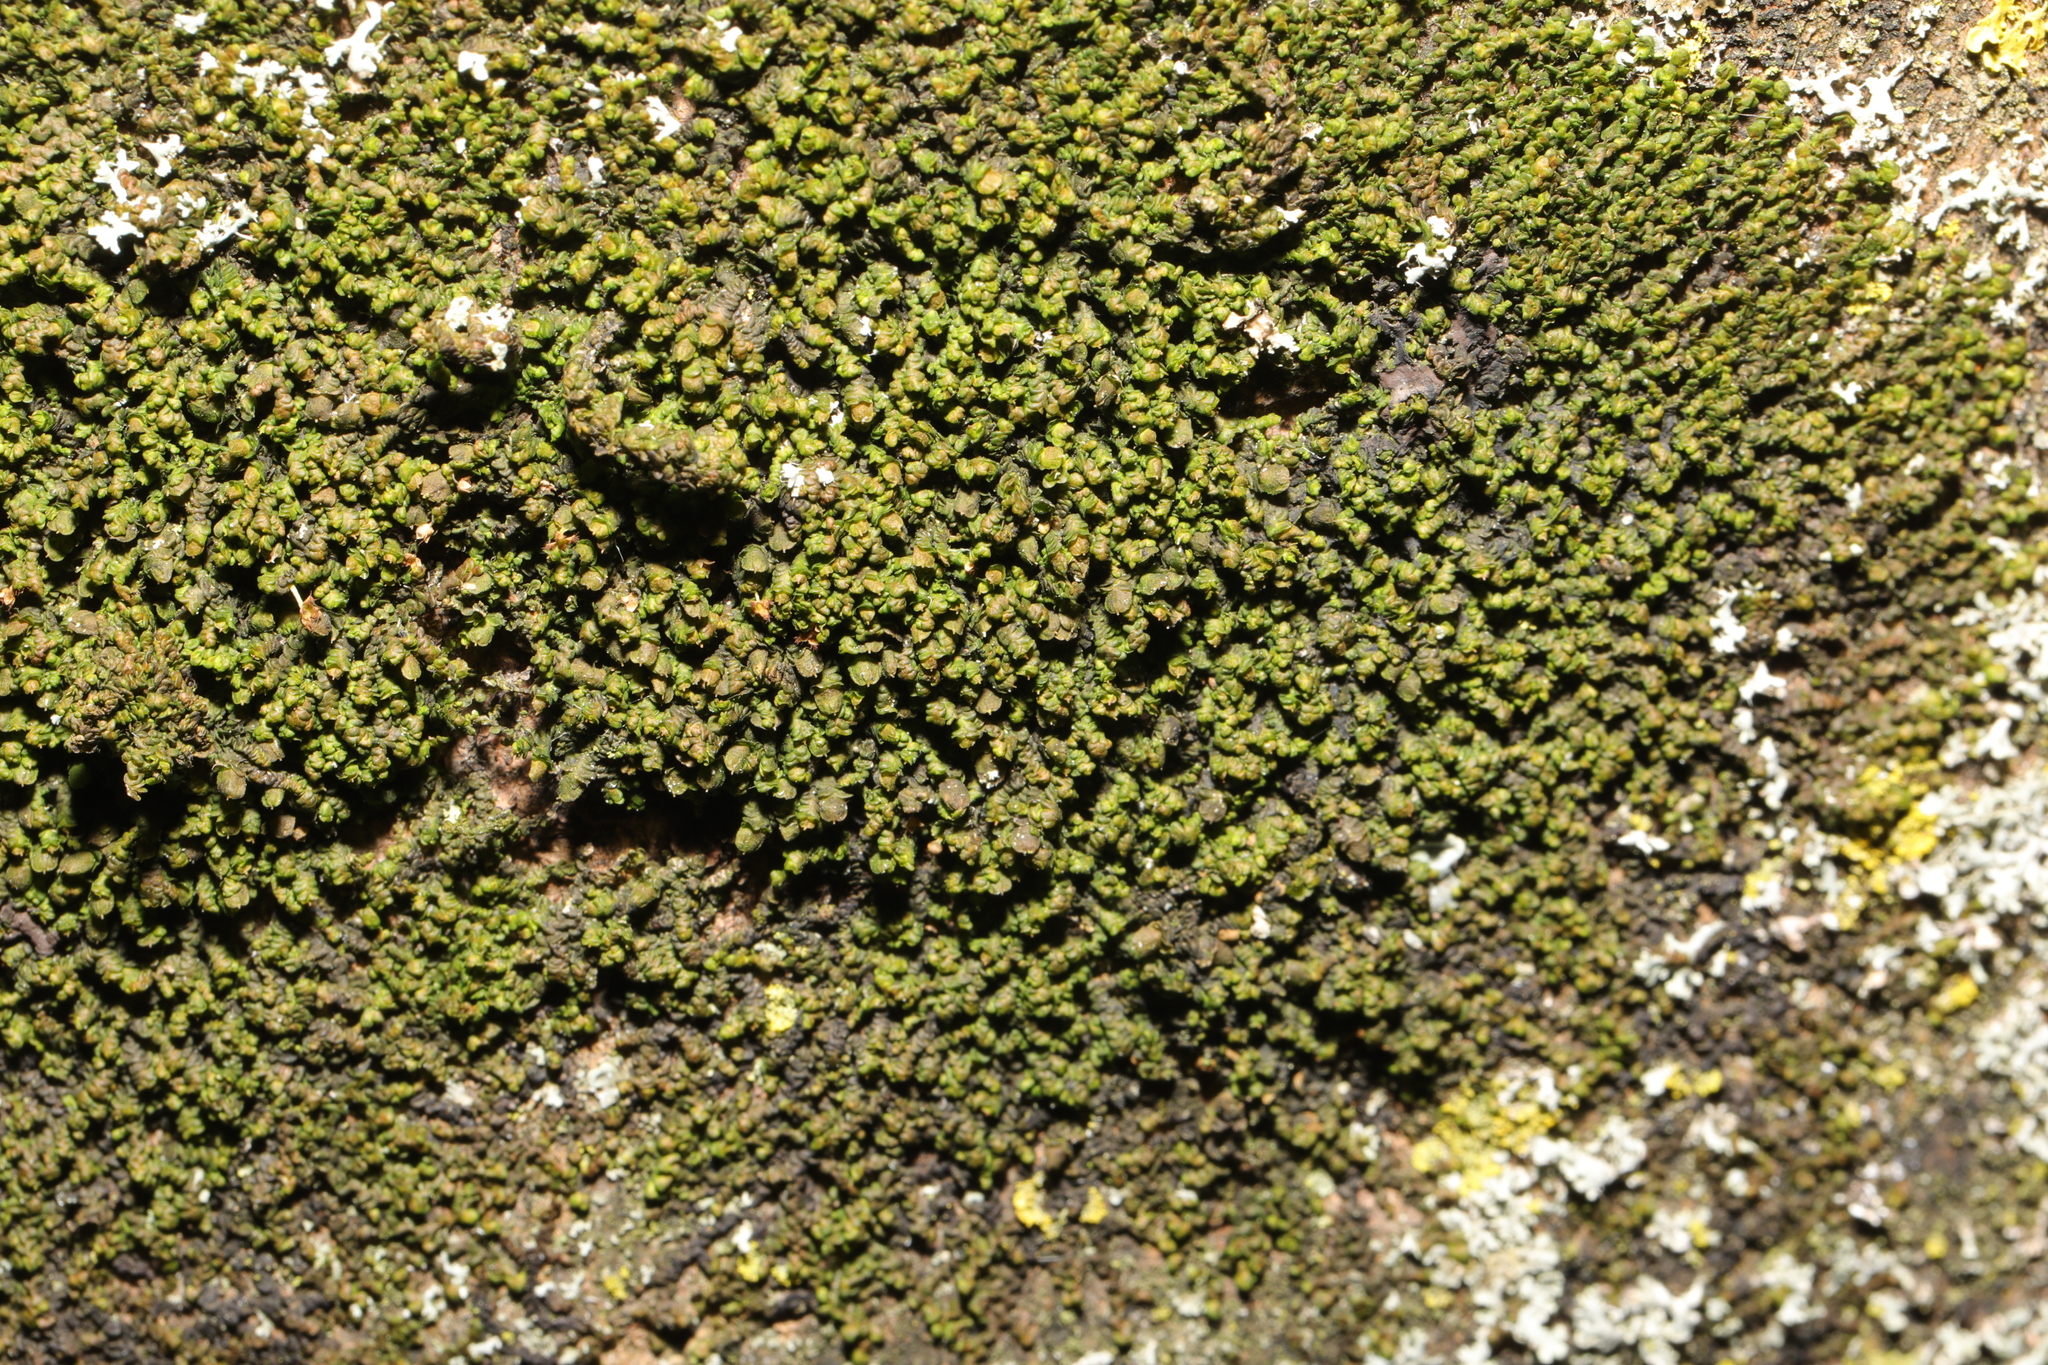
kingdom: Plantae
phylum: Marchantiophyta
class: Jungermanniopsida
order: Porellales
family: Frullaniaceae
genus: Frullania
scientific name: Frullania dilatata
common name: Dilated scalewort
